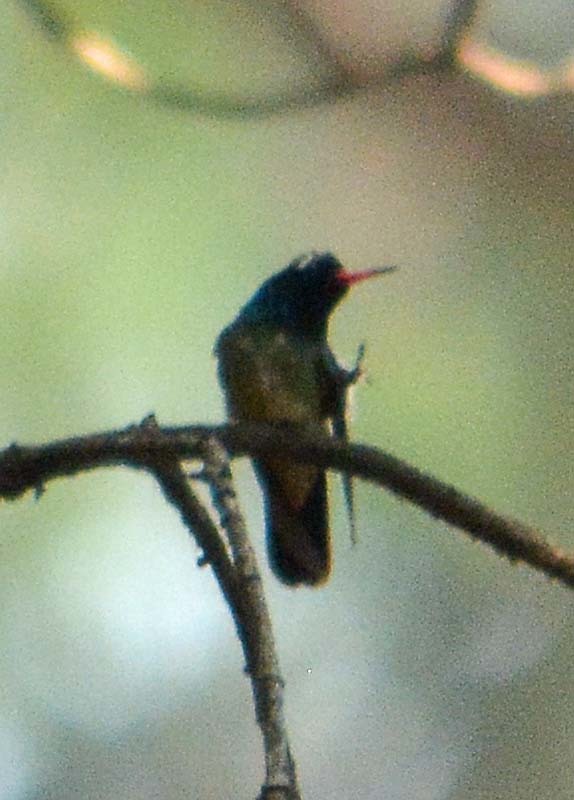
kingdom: Animalia
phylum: Chordata
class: Aves
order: Apodiformes
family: Trochilidae
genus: Basilinna
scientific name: Basilinna leucotis
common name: White-eared hummingbird
